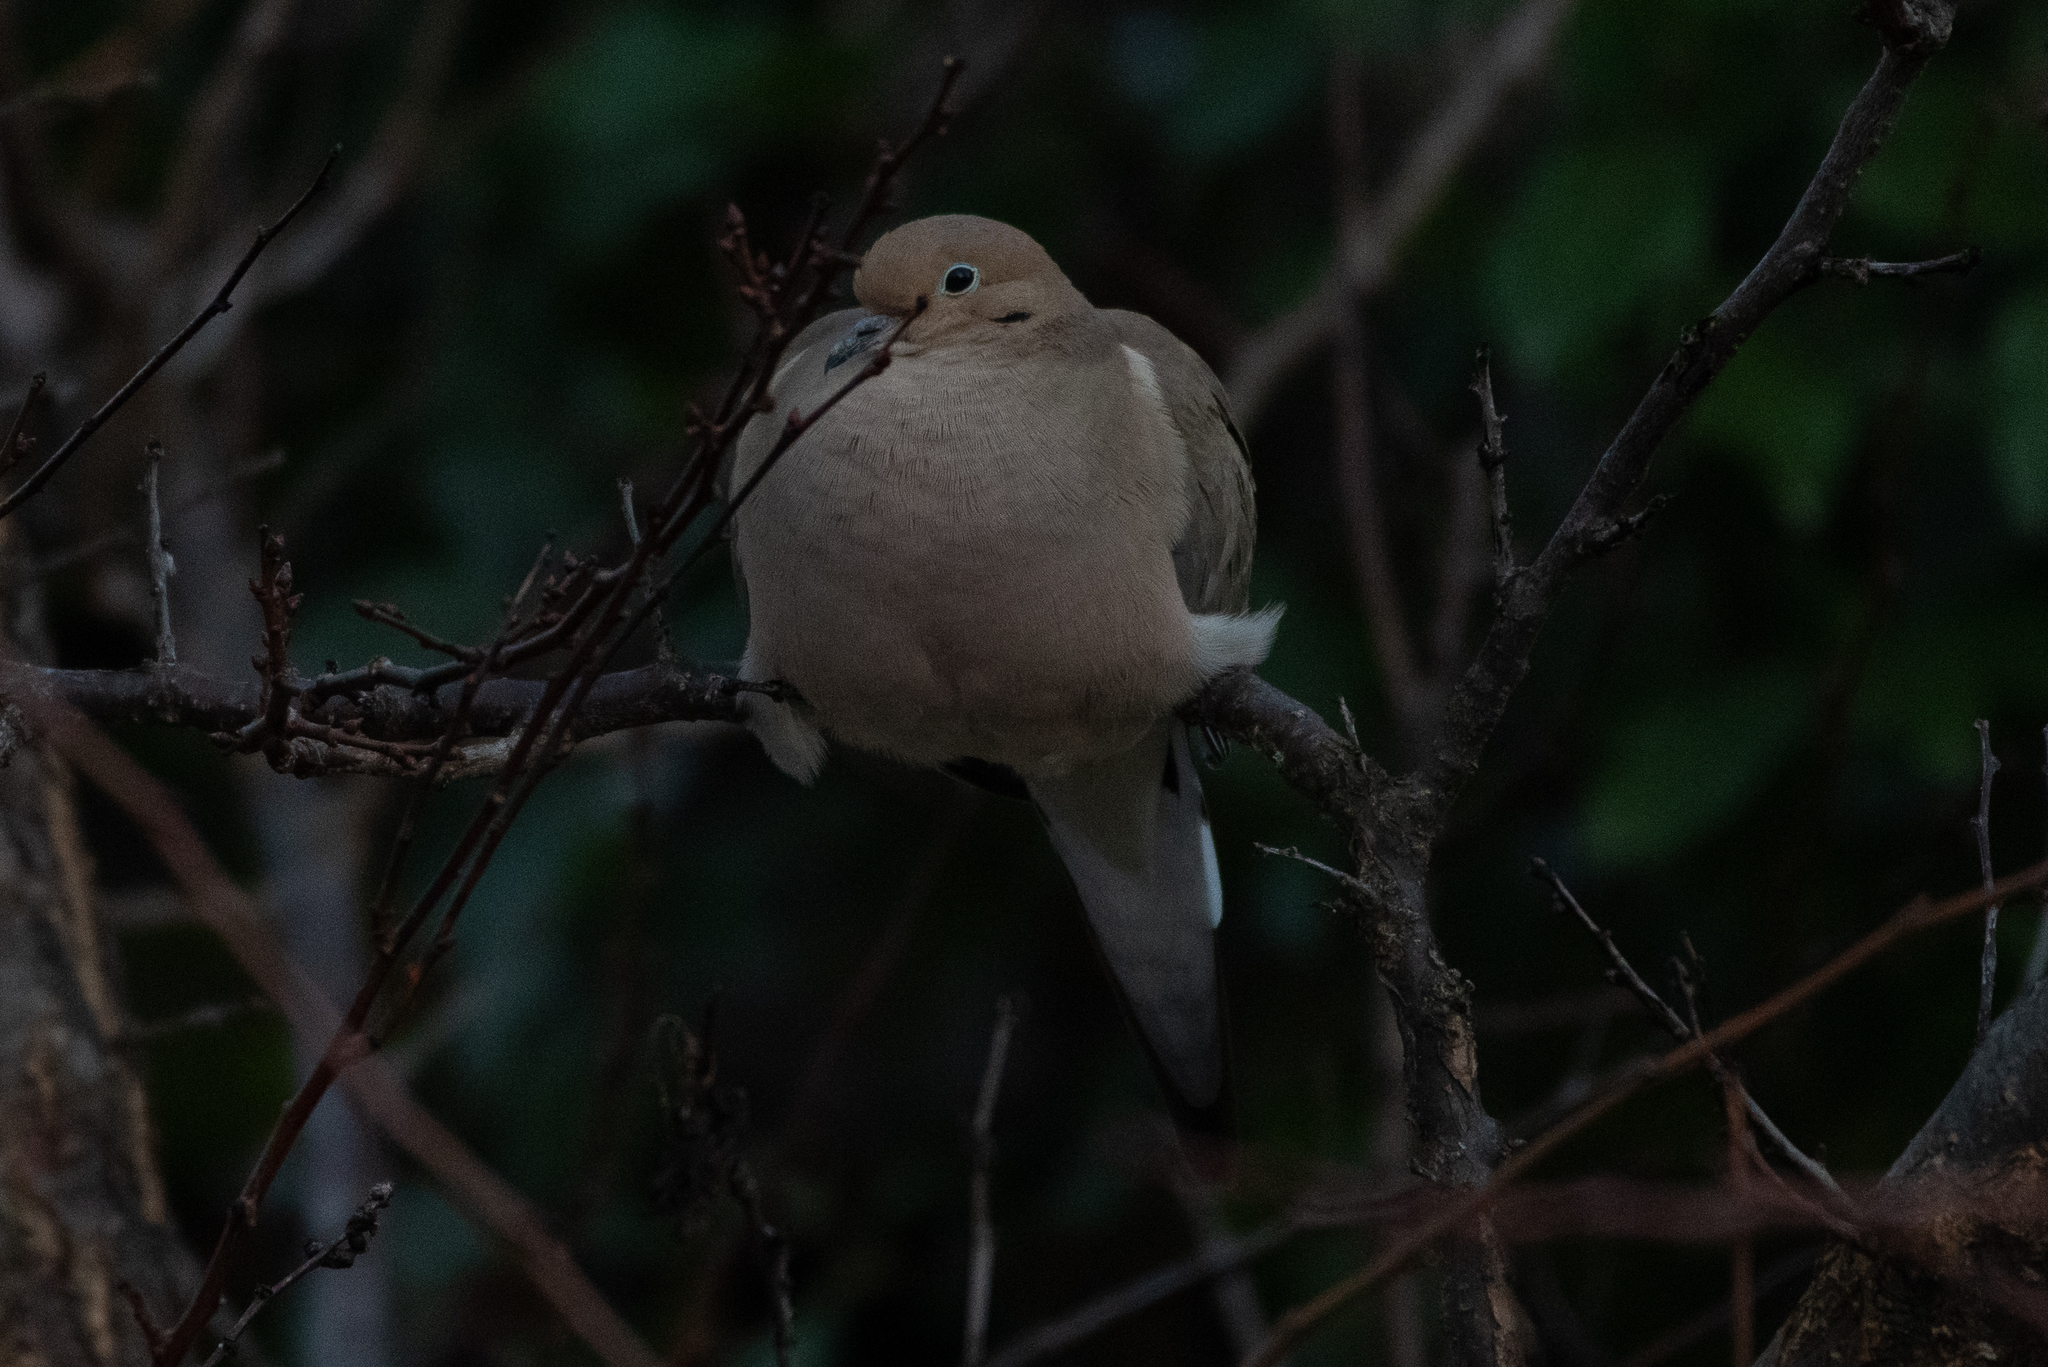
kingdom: Animalia
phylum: Chordata
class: Aves
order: Columbiformes
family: Columbidae
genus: Zenaida
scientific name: Zenaida macroura
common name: Mourning dove
